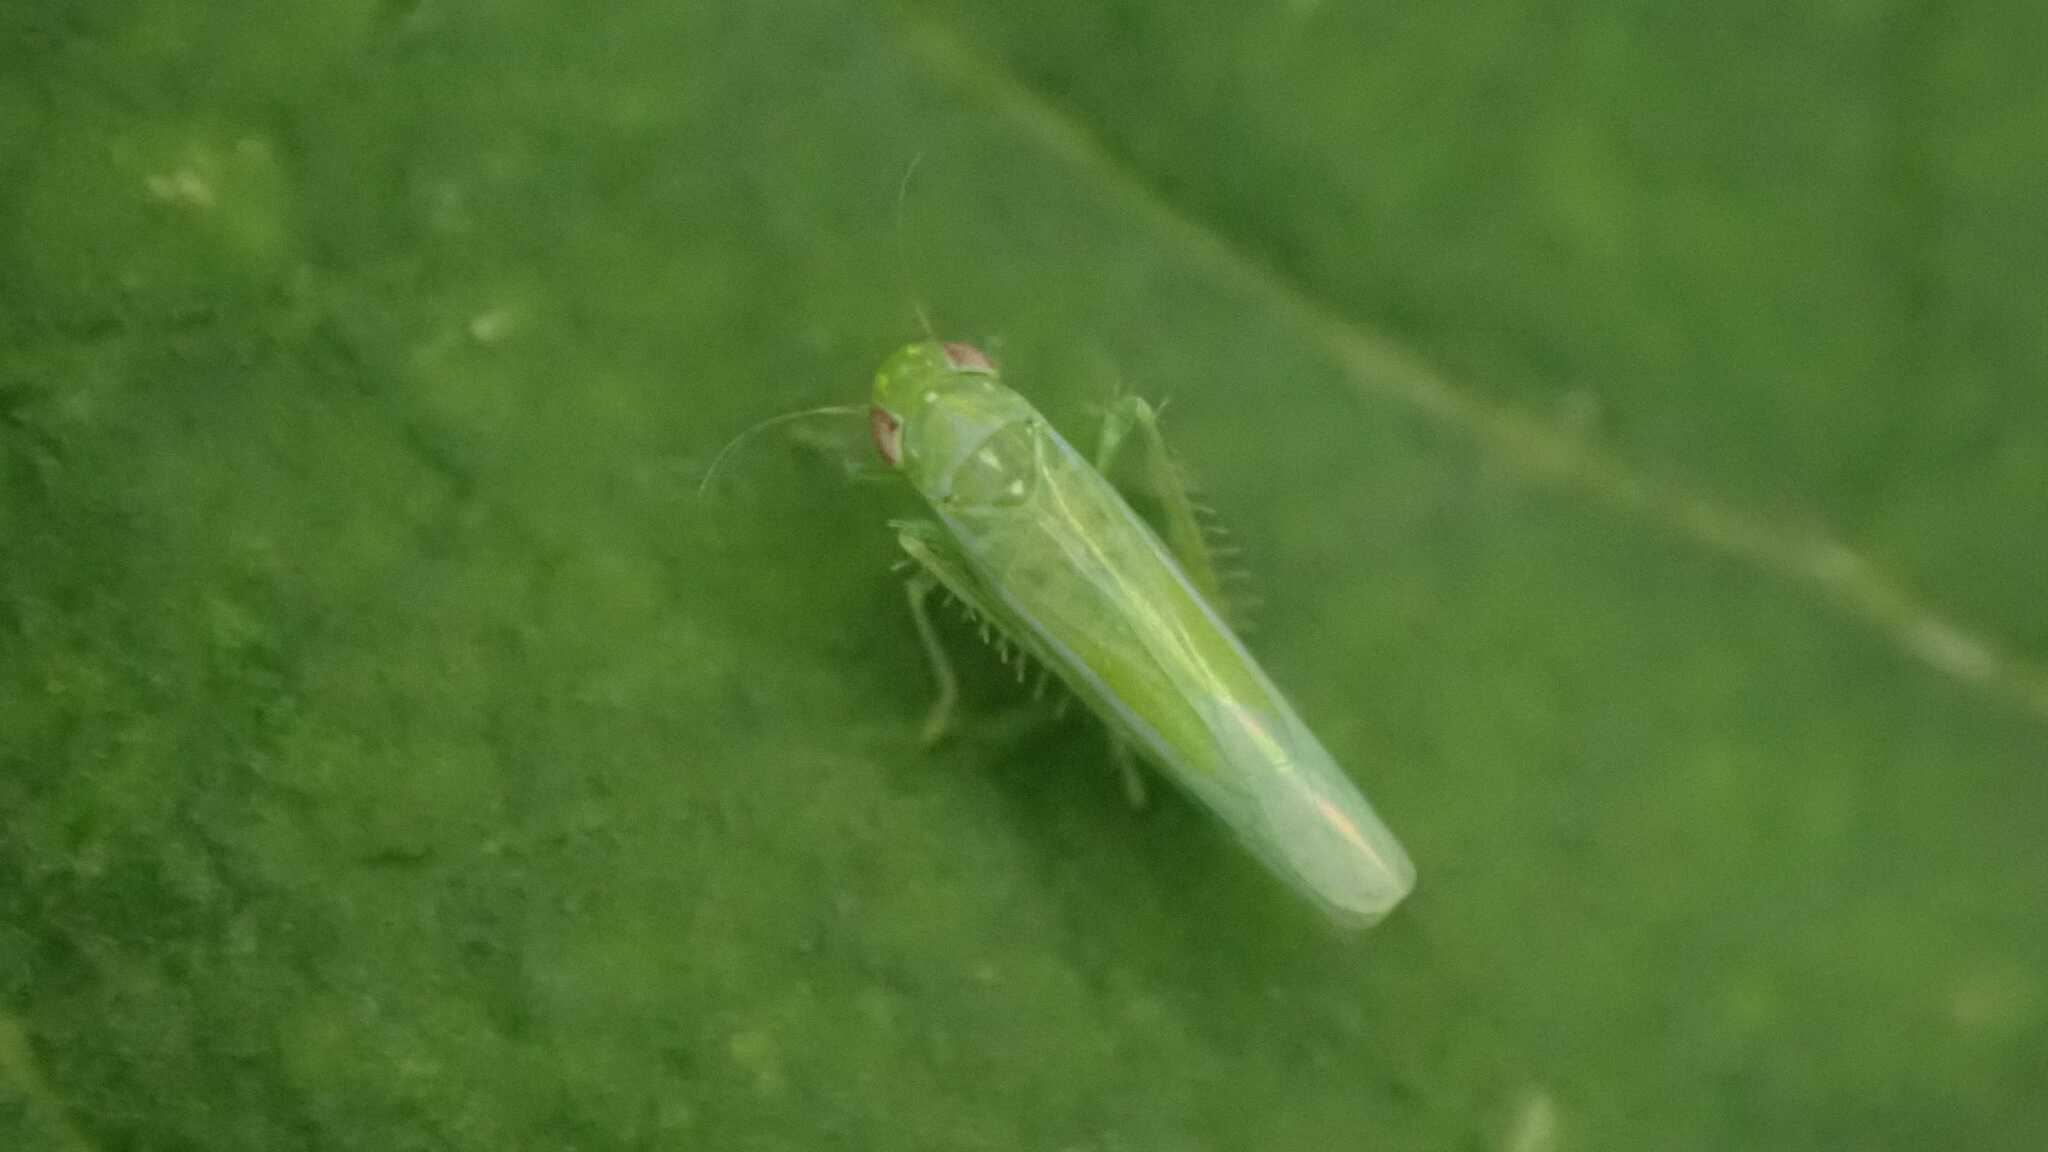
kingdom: Animalia
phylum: Arthropoda
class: Insecta
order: Hemiptera
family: Cicadellidae
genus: Hebata
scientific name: Hebata vitis
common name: The smaller green leafhopper
